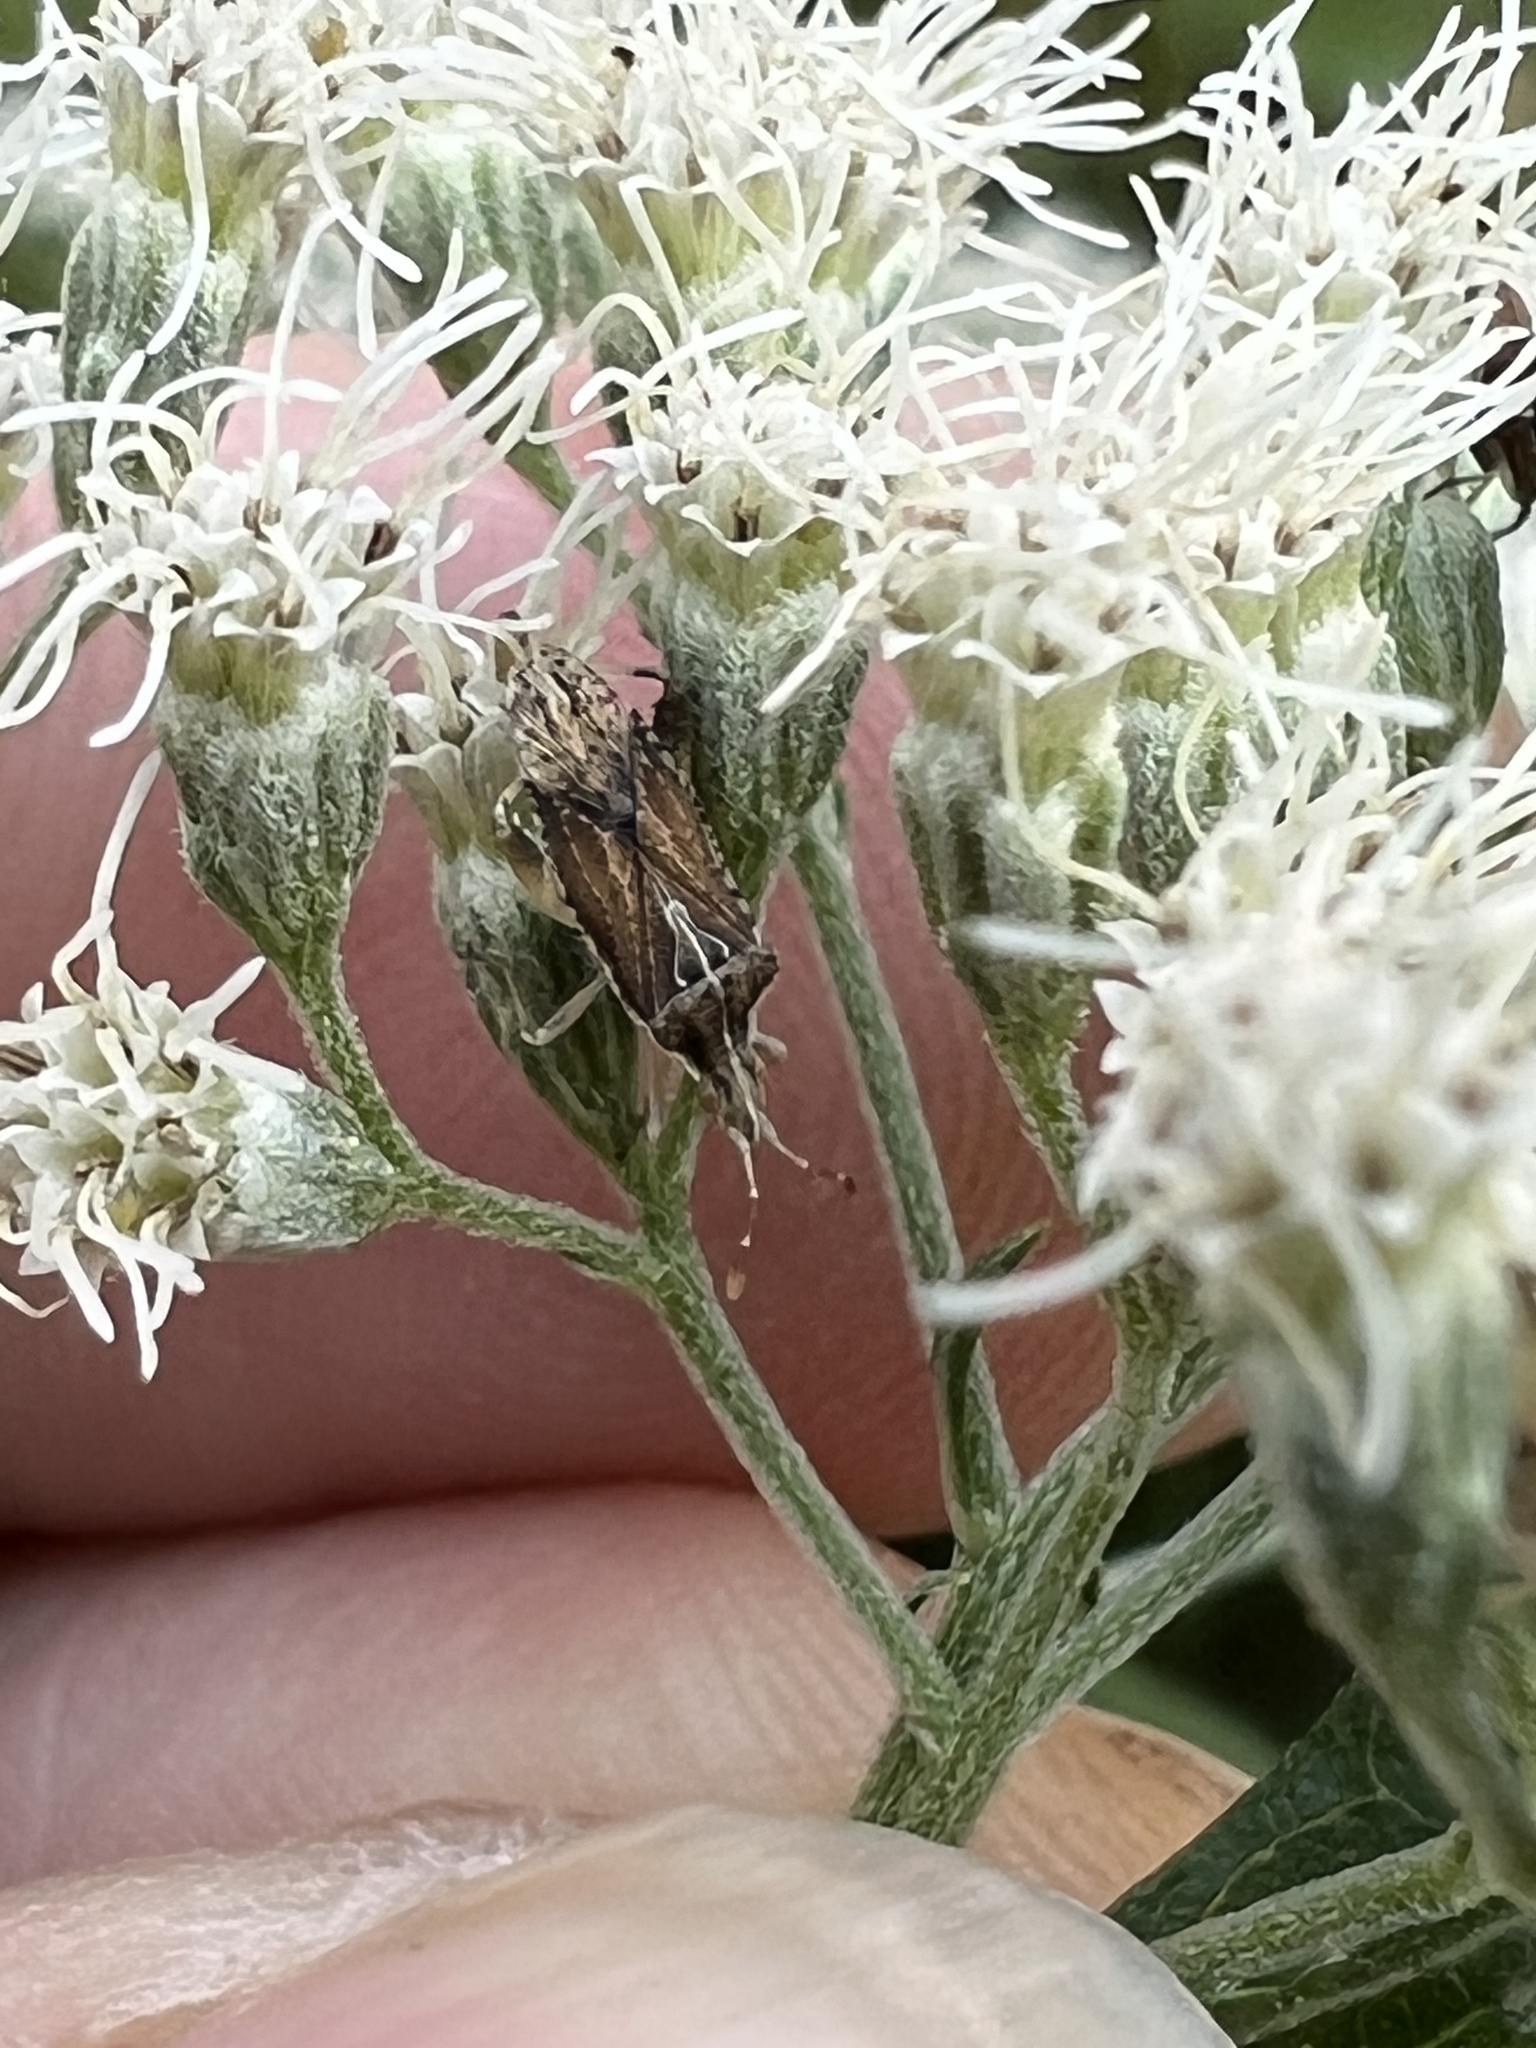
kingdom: Animalia
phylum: Arthropoda
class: Insecta
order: Hemiptera
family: Rhopalidae
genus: Harmostes
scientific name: Harmostes fraterculus
